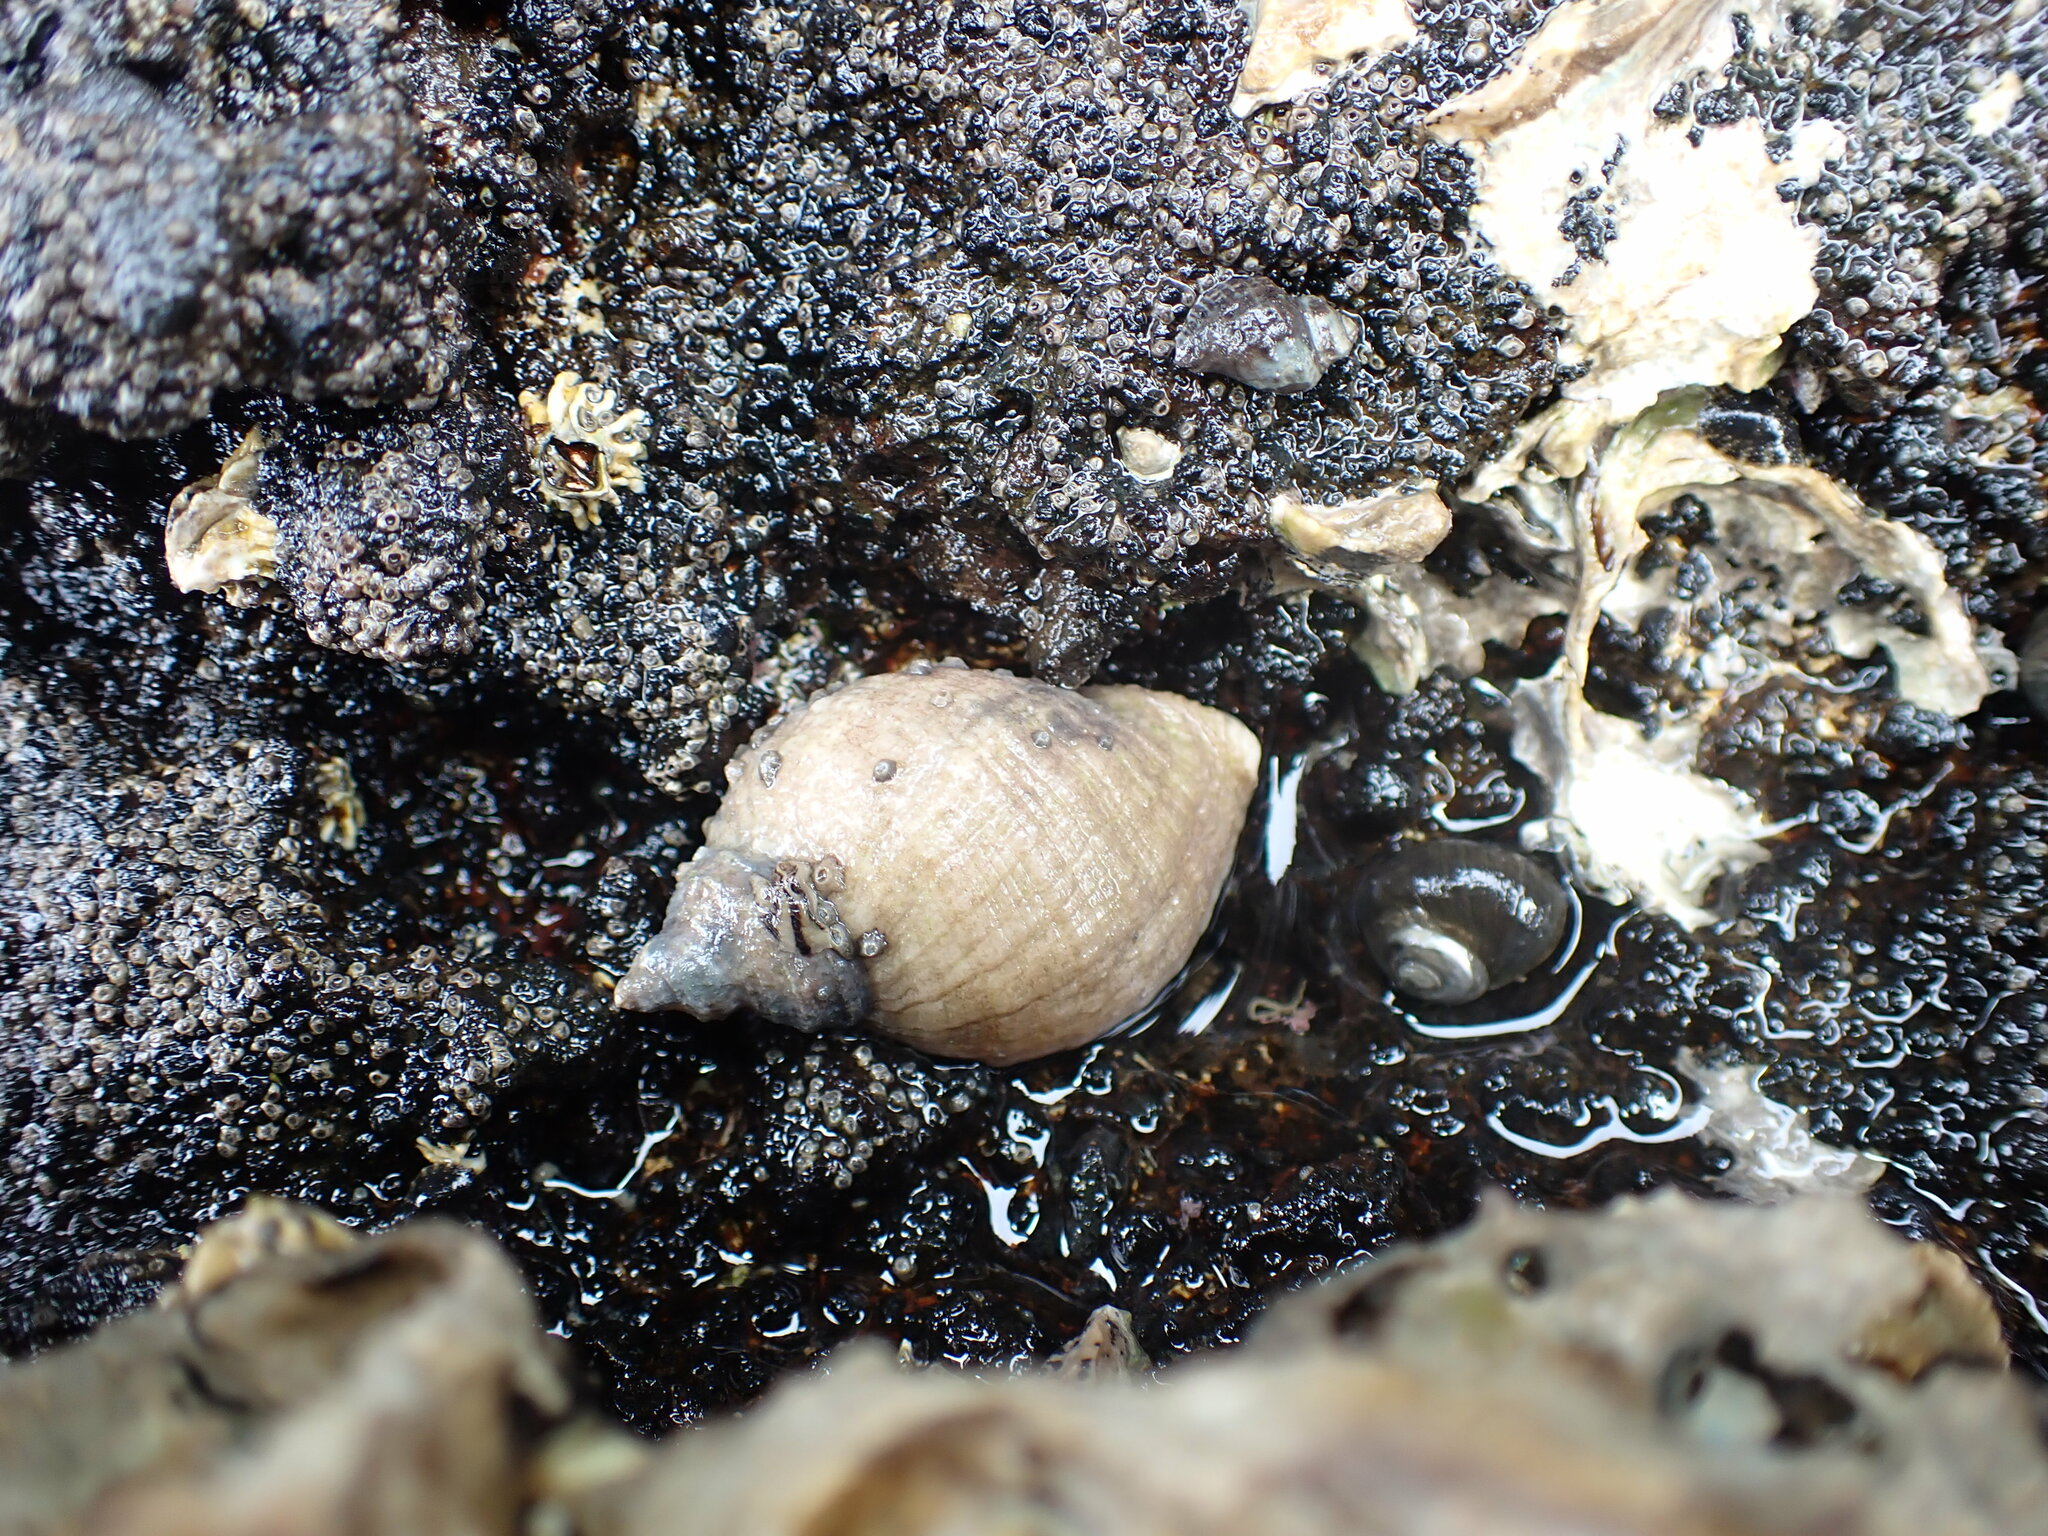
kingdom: Animalia
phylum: Mollusca
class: Gastropoda
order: Neogastropoda
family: Muricidae
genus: Dicathais
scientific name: Dicathais orbita
